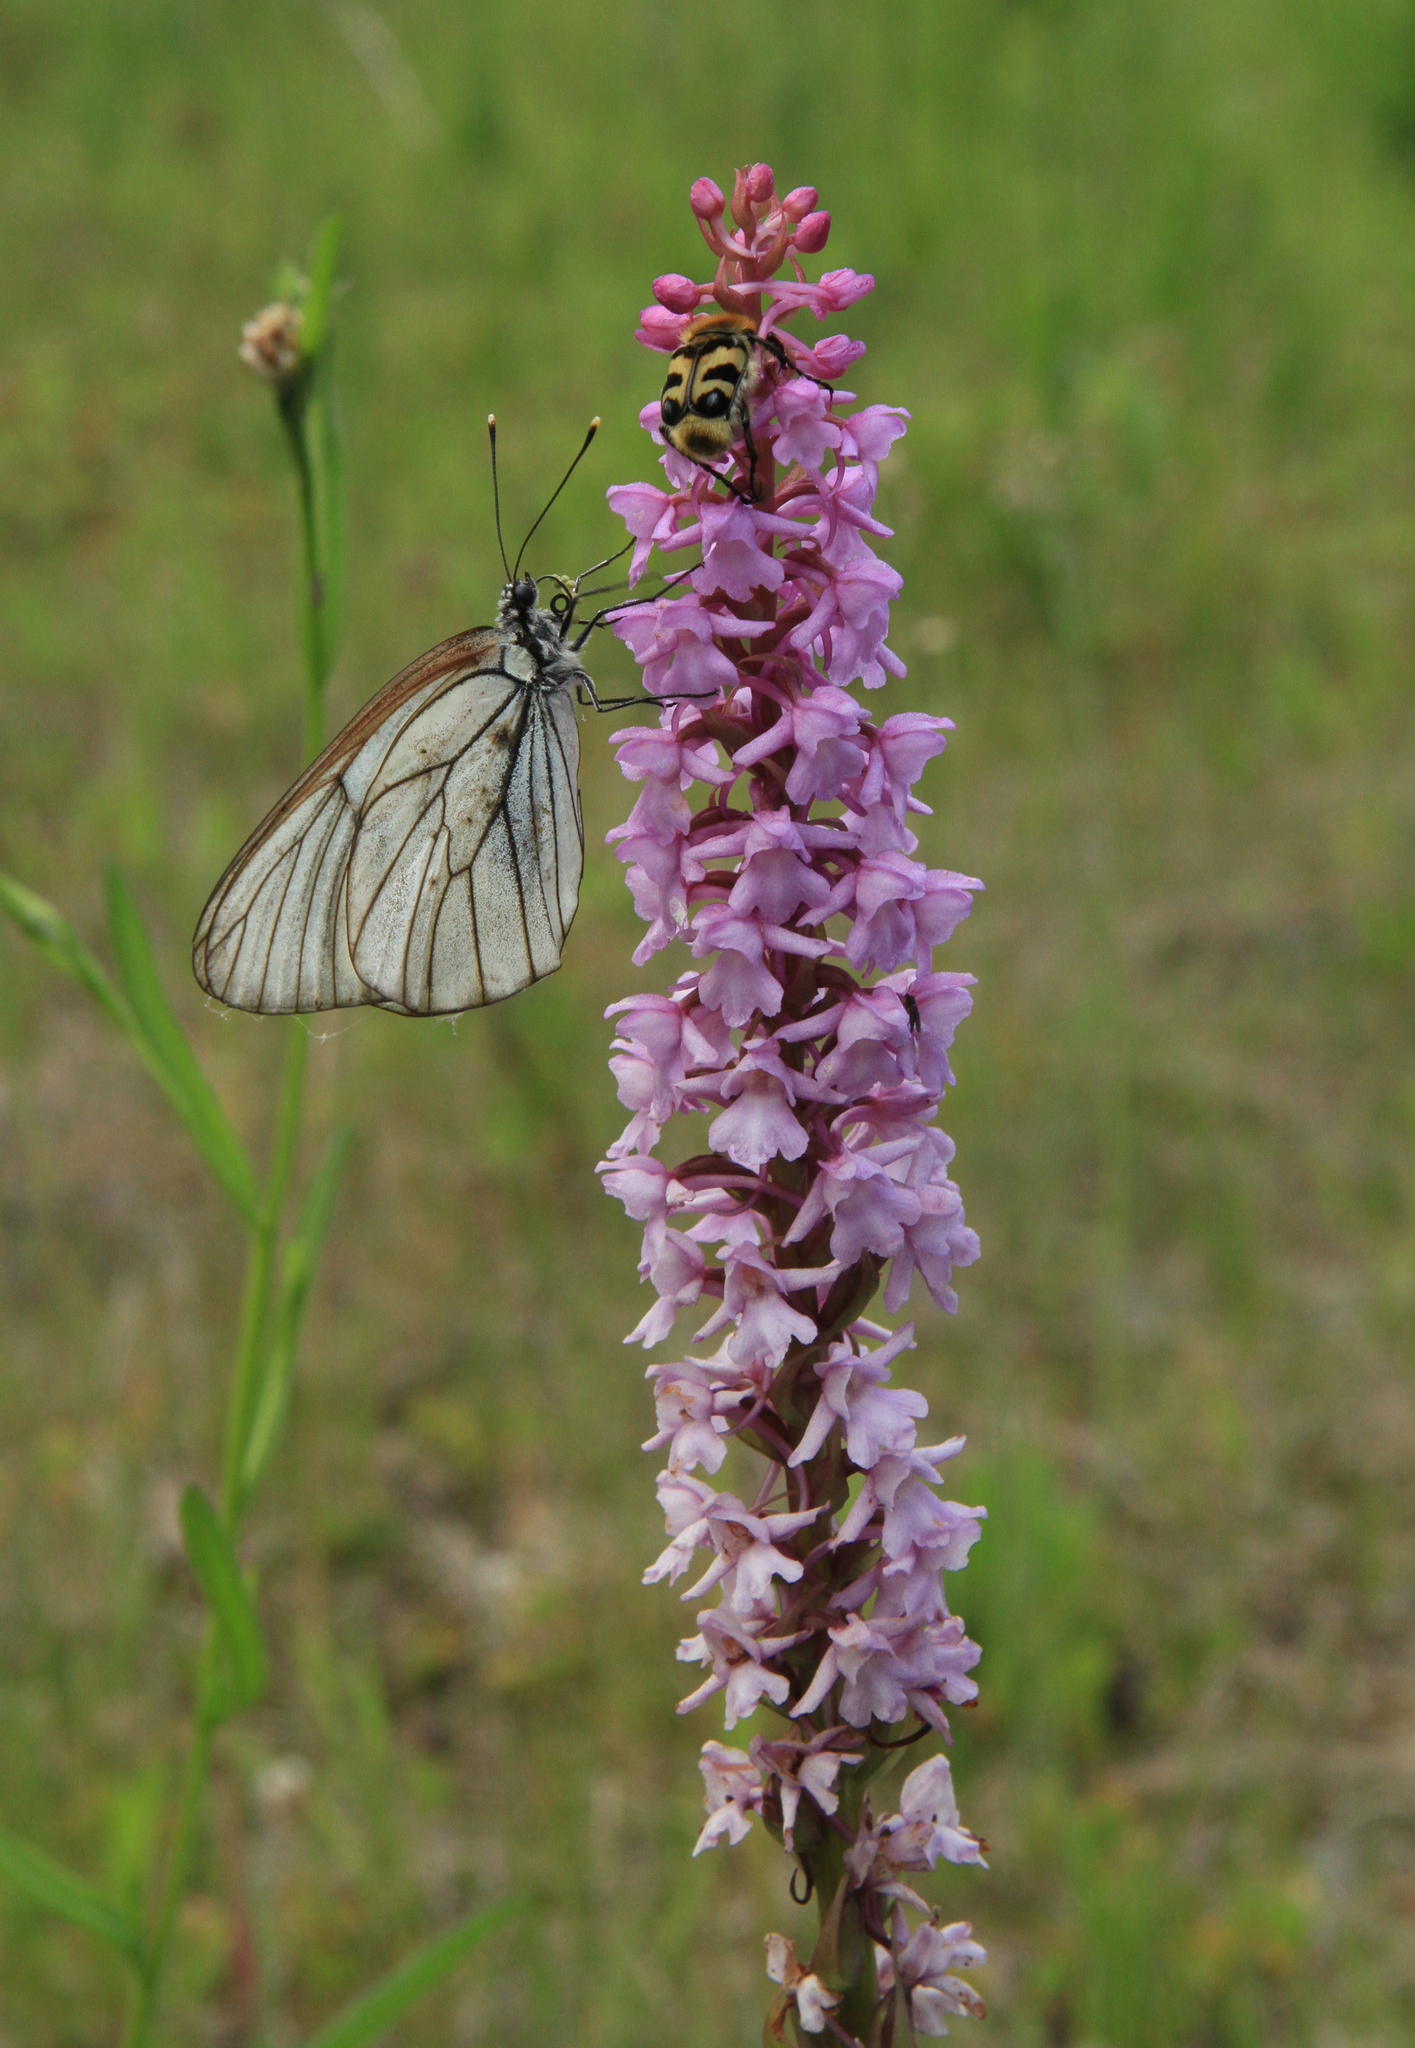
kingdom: Plantae
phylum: Tracheophyta
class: Liliopsida
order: Asparagales
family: Orchidaceae
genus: Gymnadenia
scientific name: Gymnadenia conopsea
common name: Fragrant orchid
